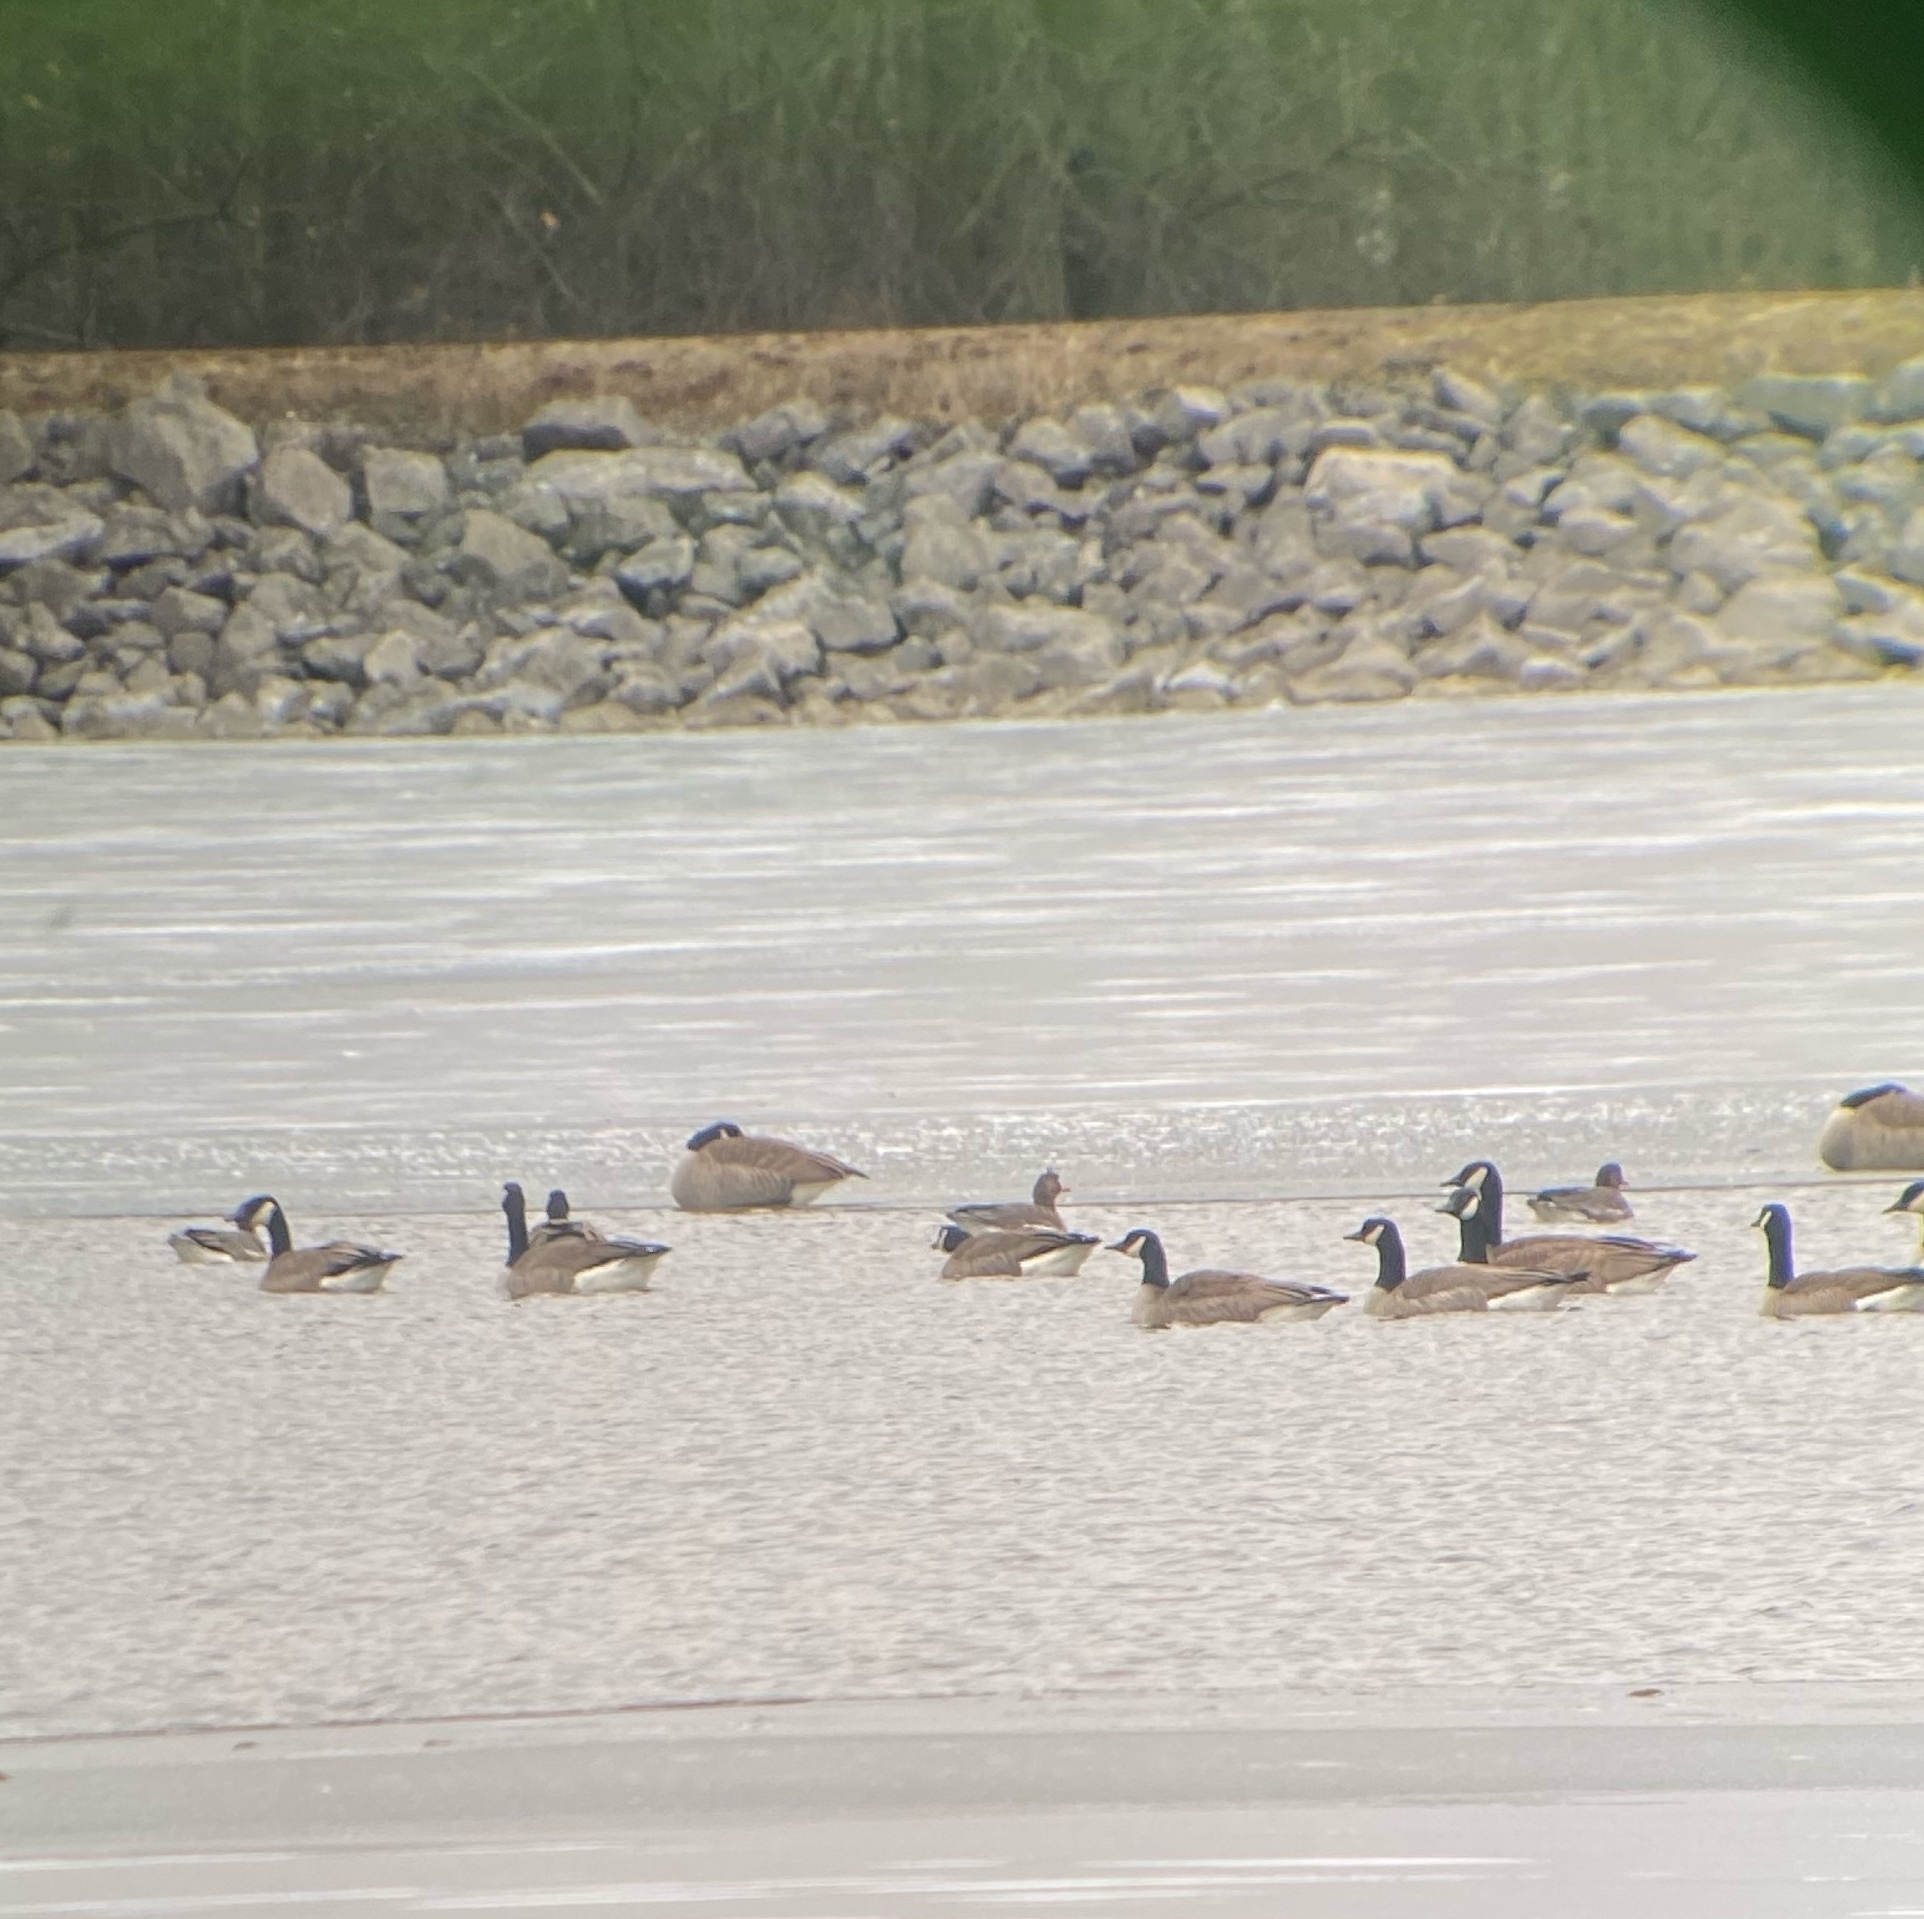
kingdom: Animalia
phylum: Chordata
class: Aves
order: Anseriformes
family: Anatidae
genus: Anser
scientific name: Anser albifrons
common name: Greater white-fronted goose
